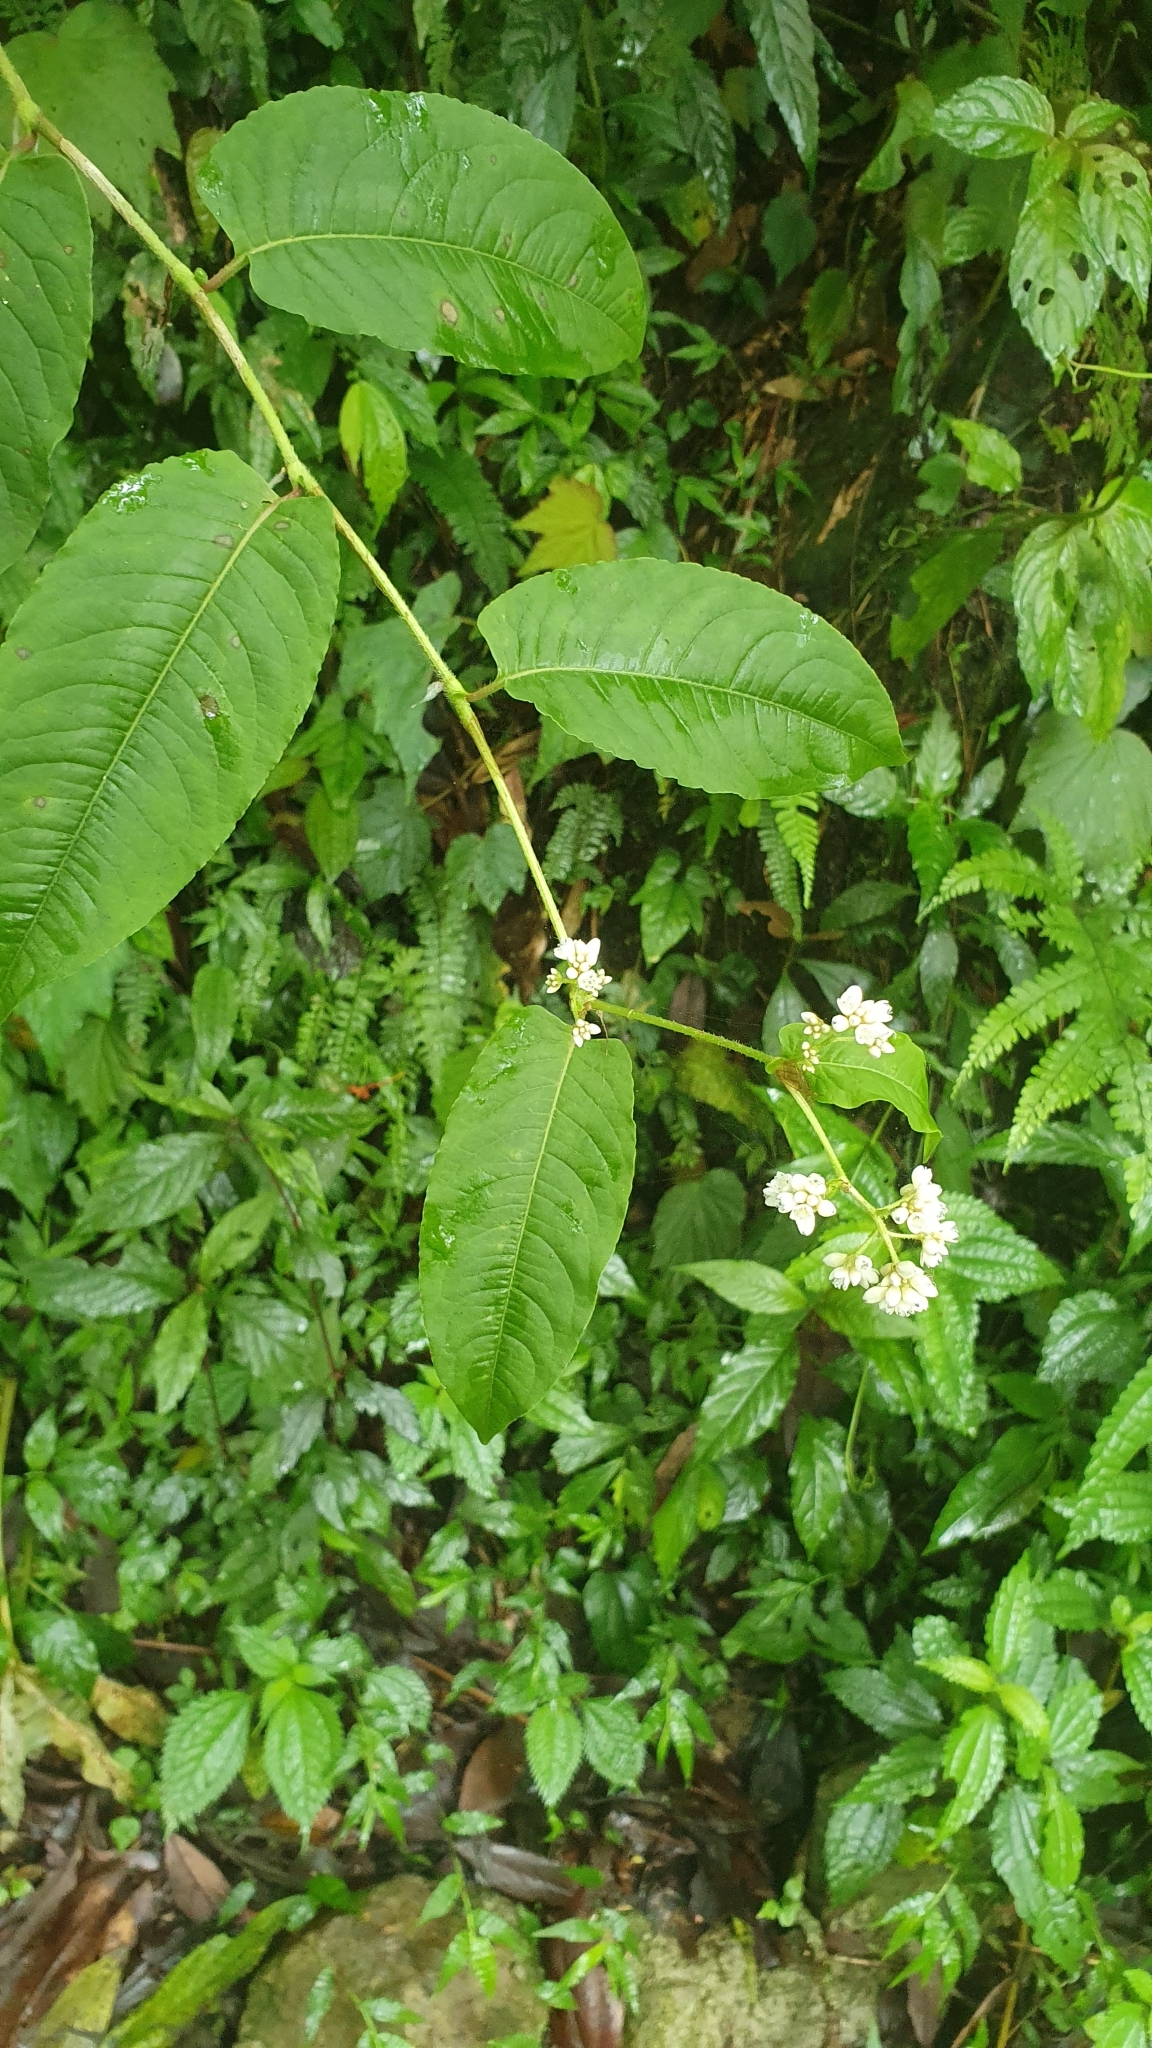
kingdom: Plantae
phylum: Tracheophyta
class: Magnoliopsida
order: Caryophyllales
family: Polygonaceae
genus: Persicaria
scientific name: Persicaria chinensis
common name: Chinese knotweed
